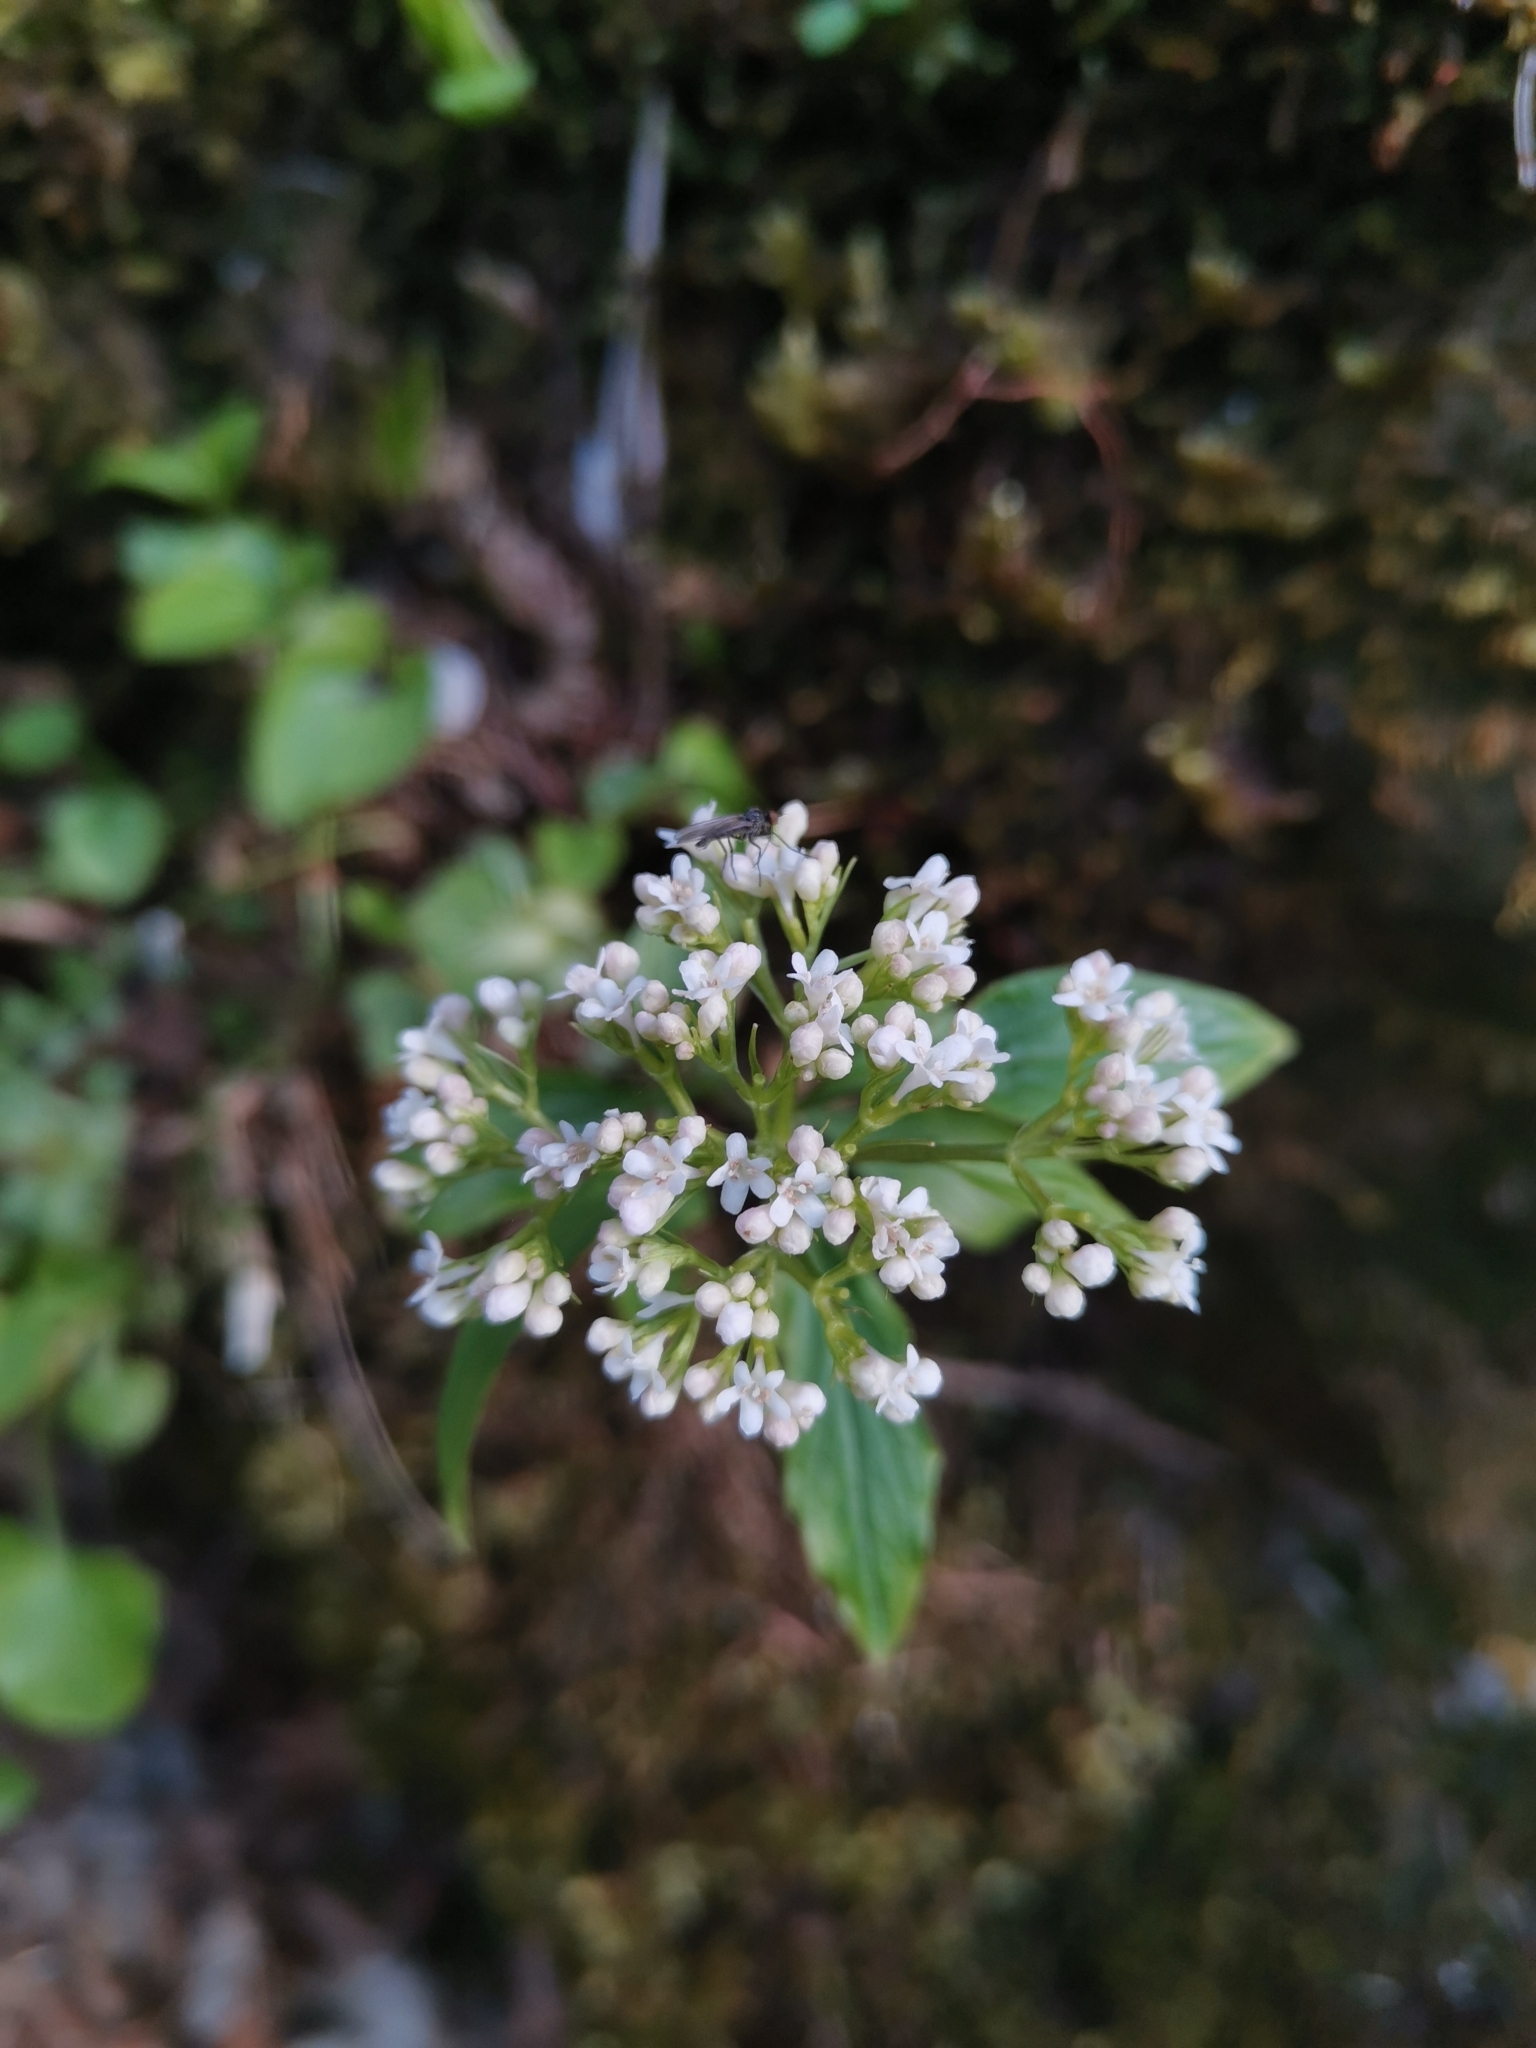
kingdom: Plantae
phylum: Tracheophyta
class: Magnoliopsida
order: Dipsacales
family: Caprifoliaceae
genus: Valeriana
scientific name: Valeriana tripteris
